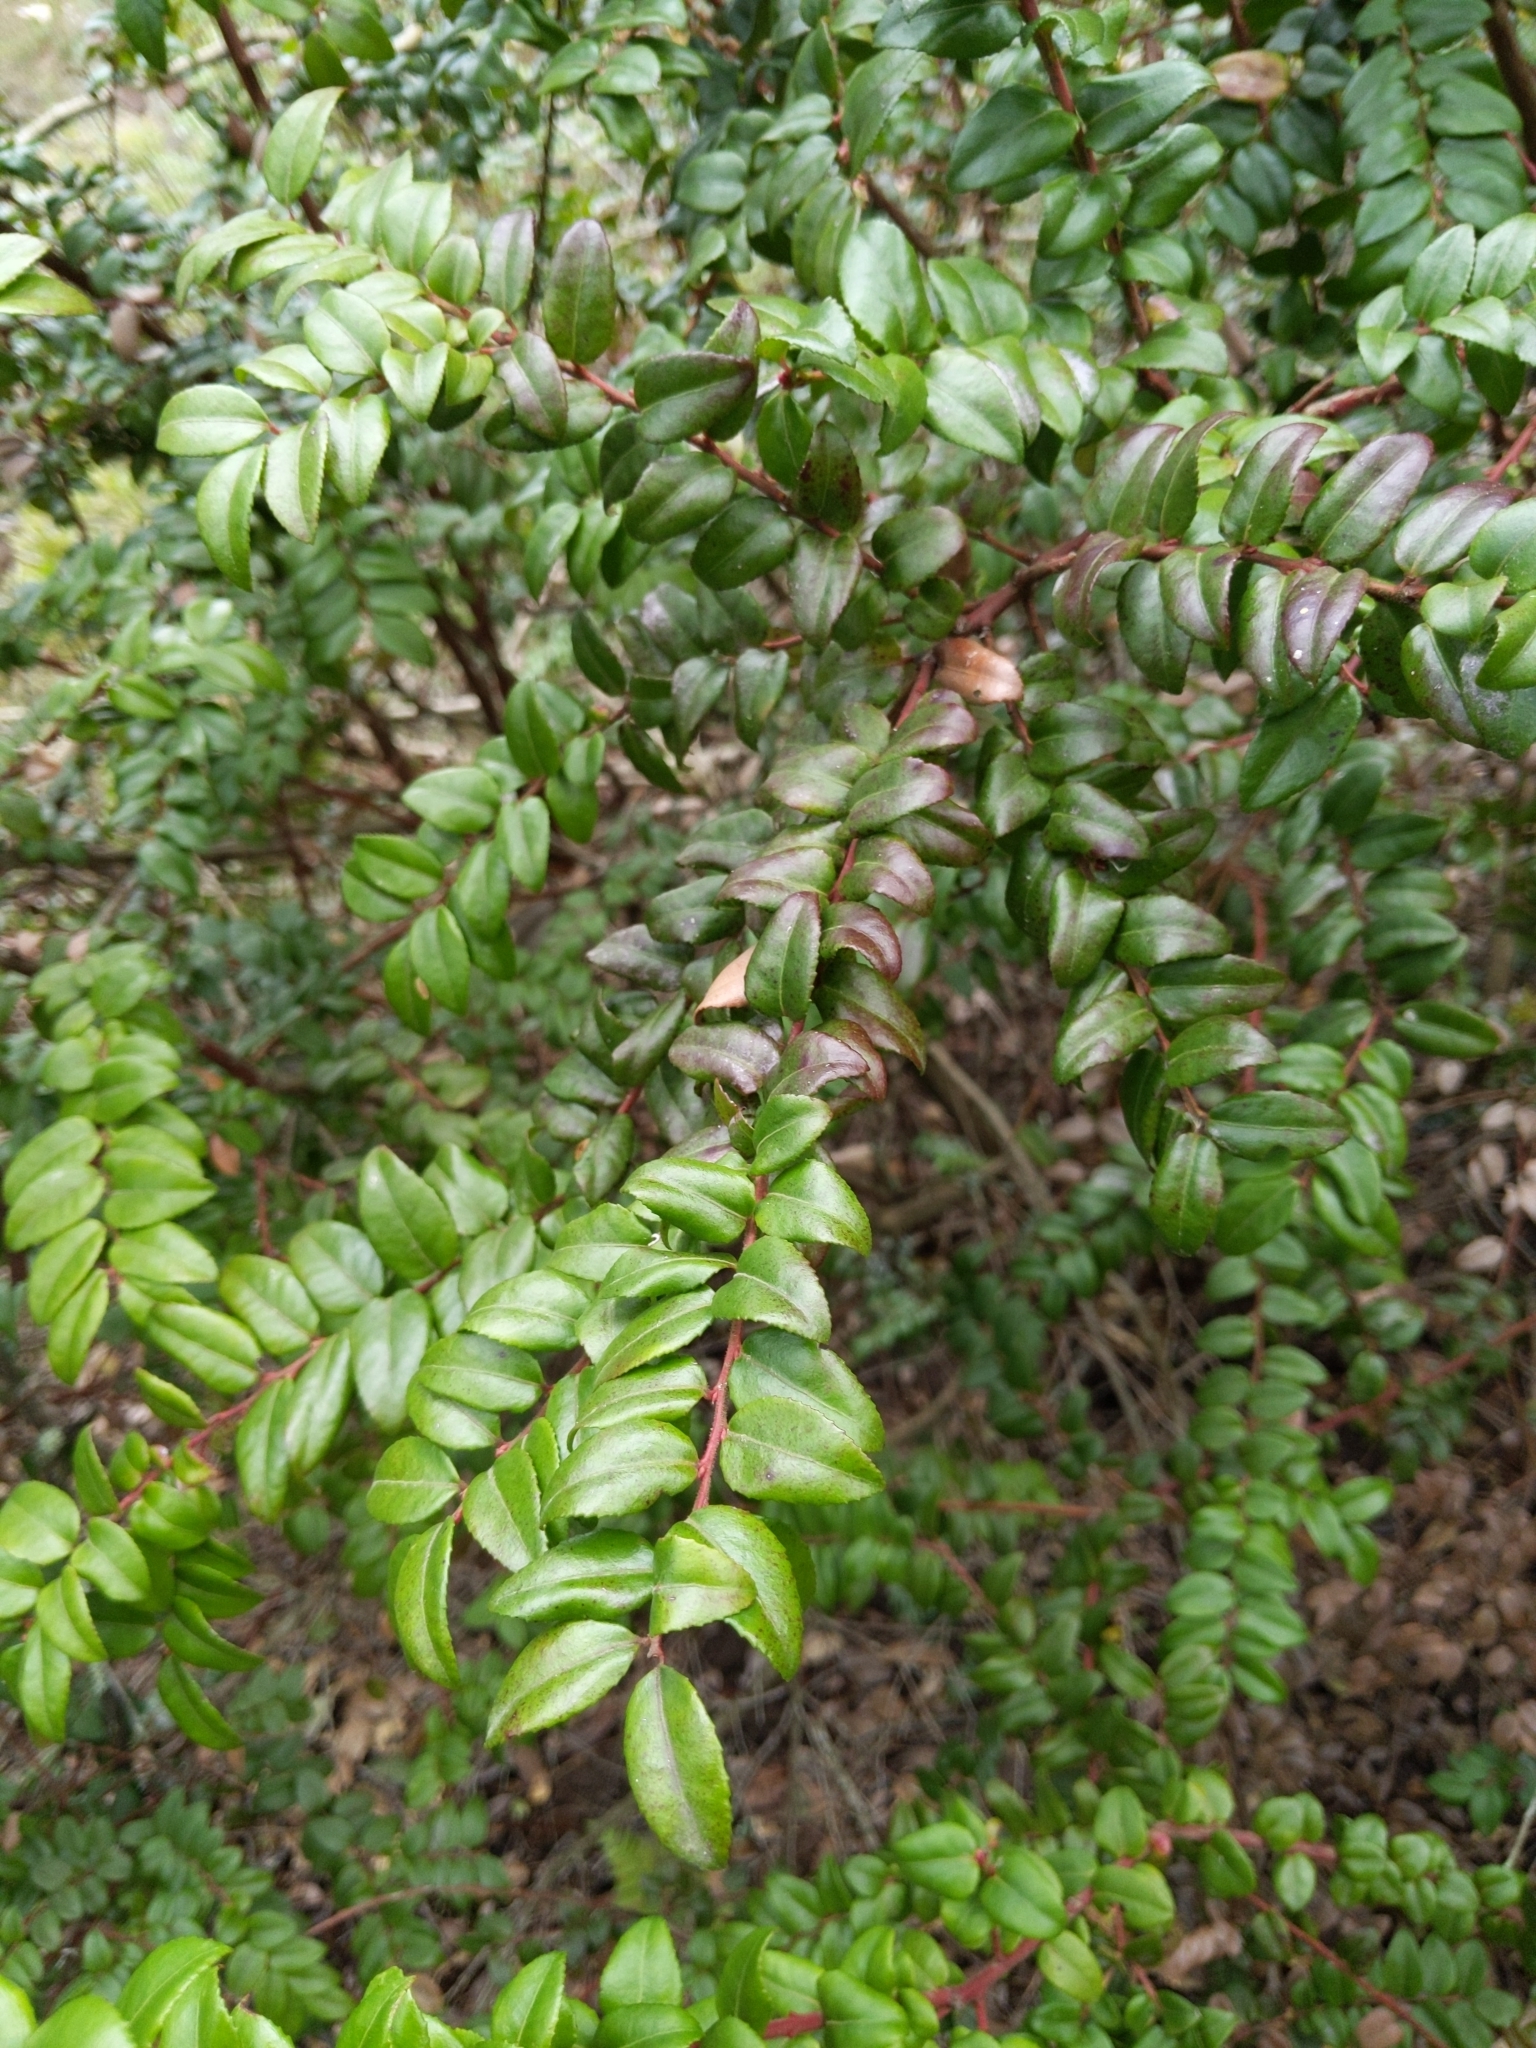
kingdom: Plantae
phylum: Tracheophyta
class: Magnoliopsida
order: Ericales
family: Ericaceae
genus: Vaccinium
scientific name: Vaccinium ovatum
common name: California-huckleberry
